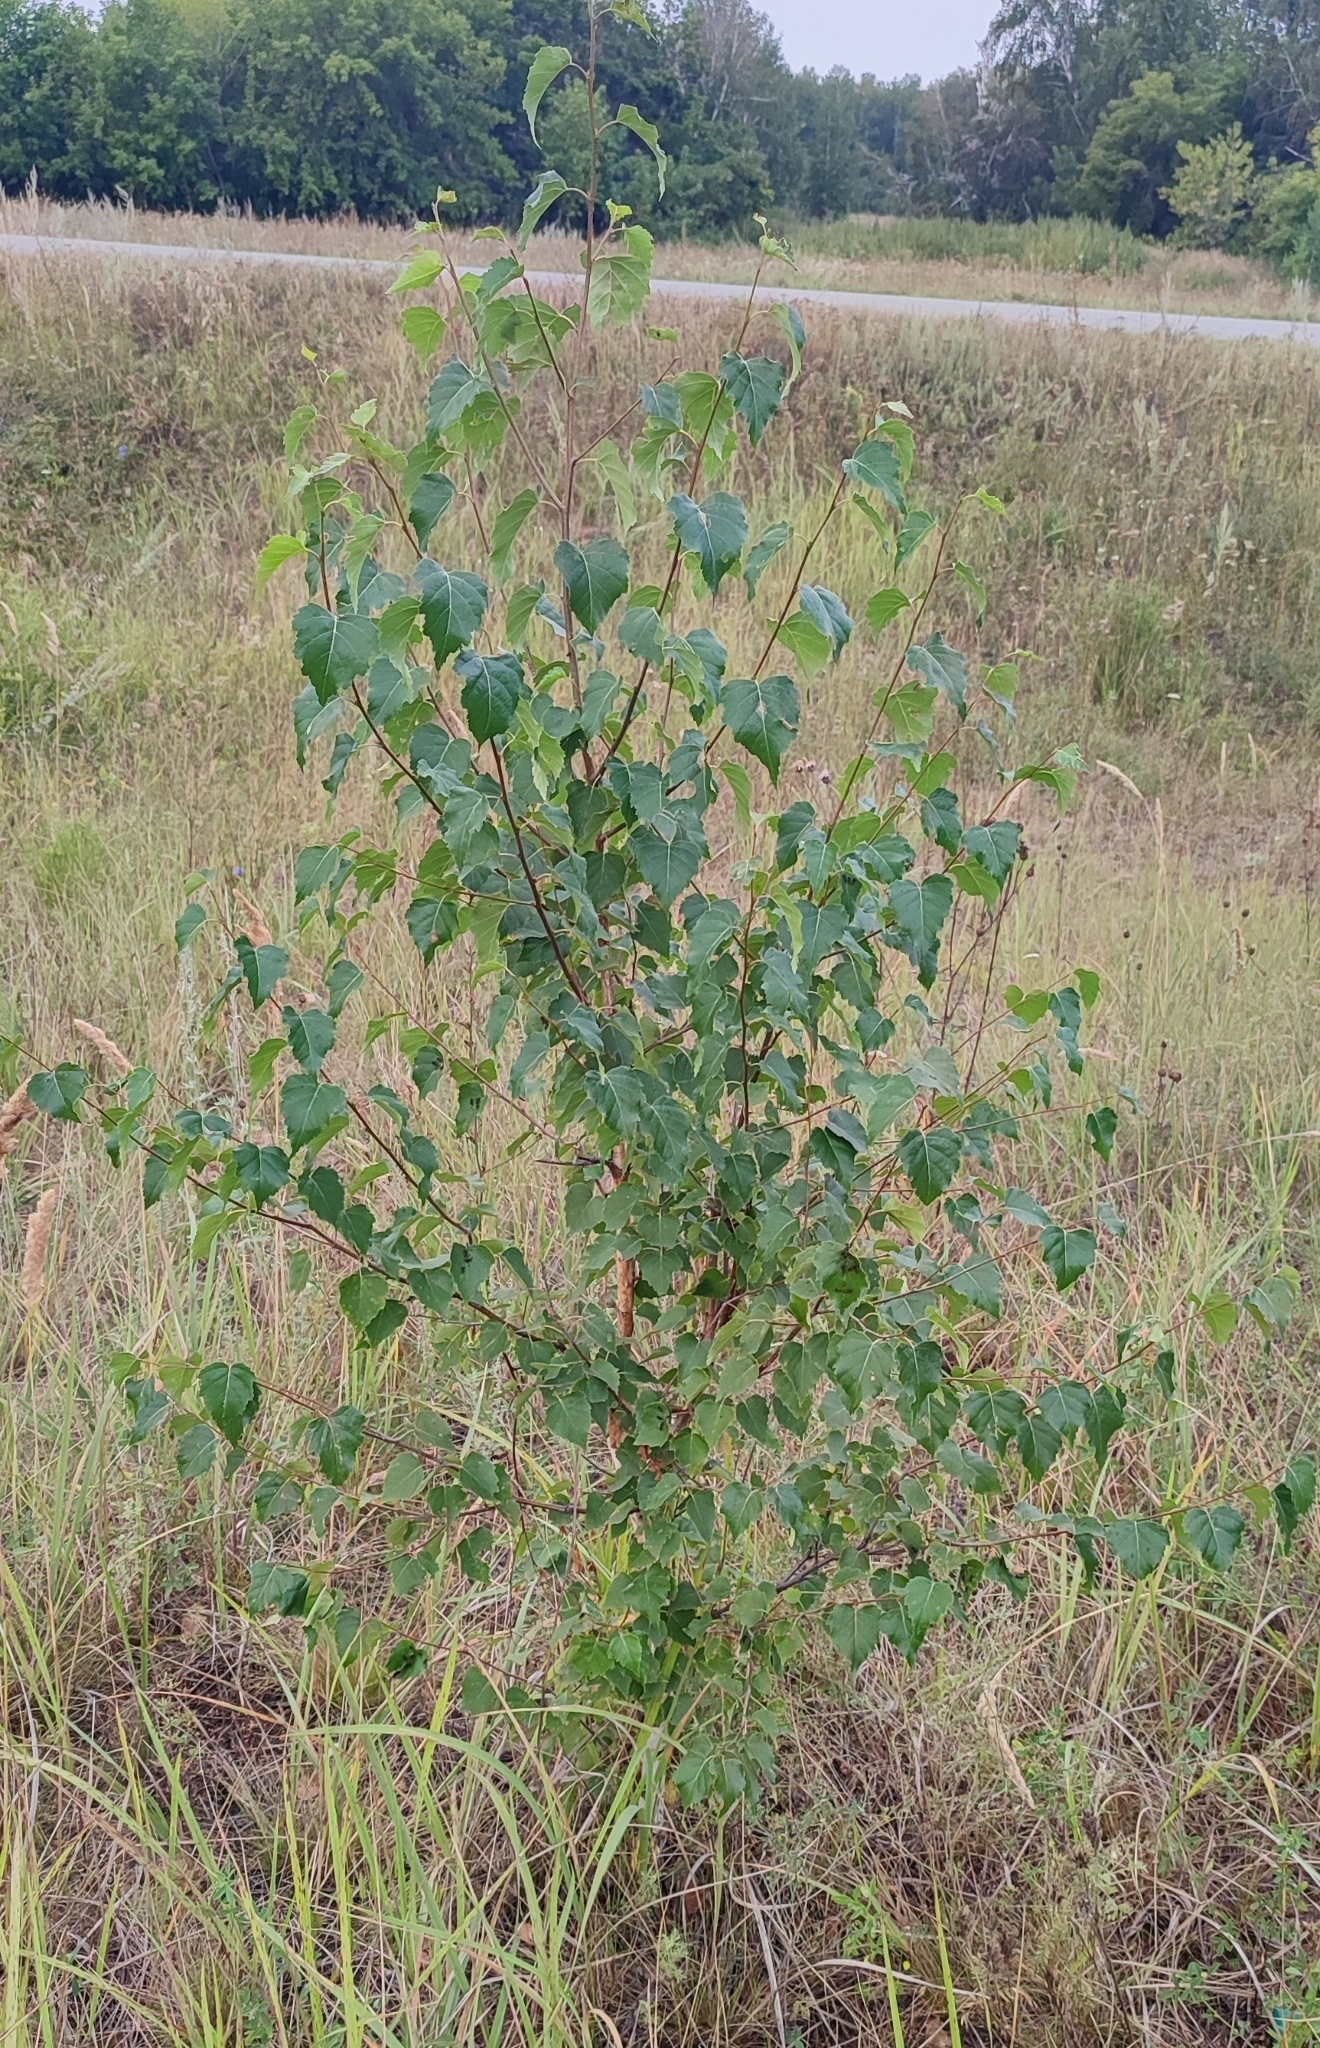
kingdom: Plantae
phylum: Tracheophyta
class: Magnoliopsida
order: Fagales
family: Betulaceae
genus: Betula
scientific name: Betula pendula
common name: Silver birch
